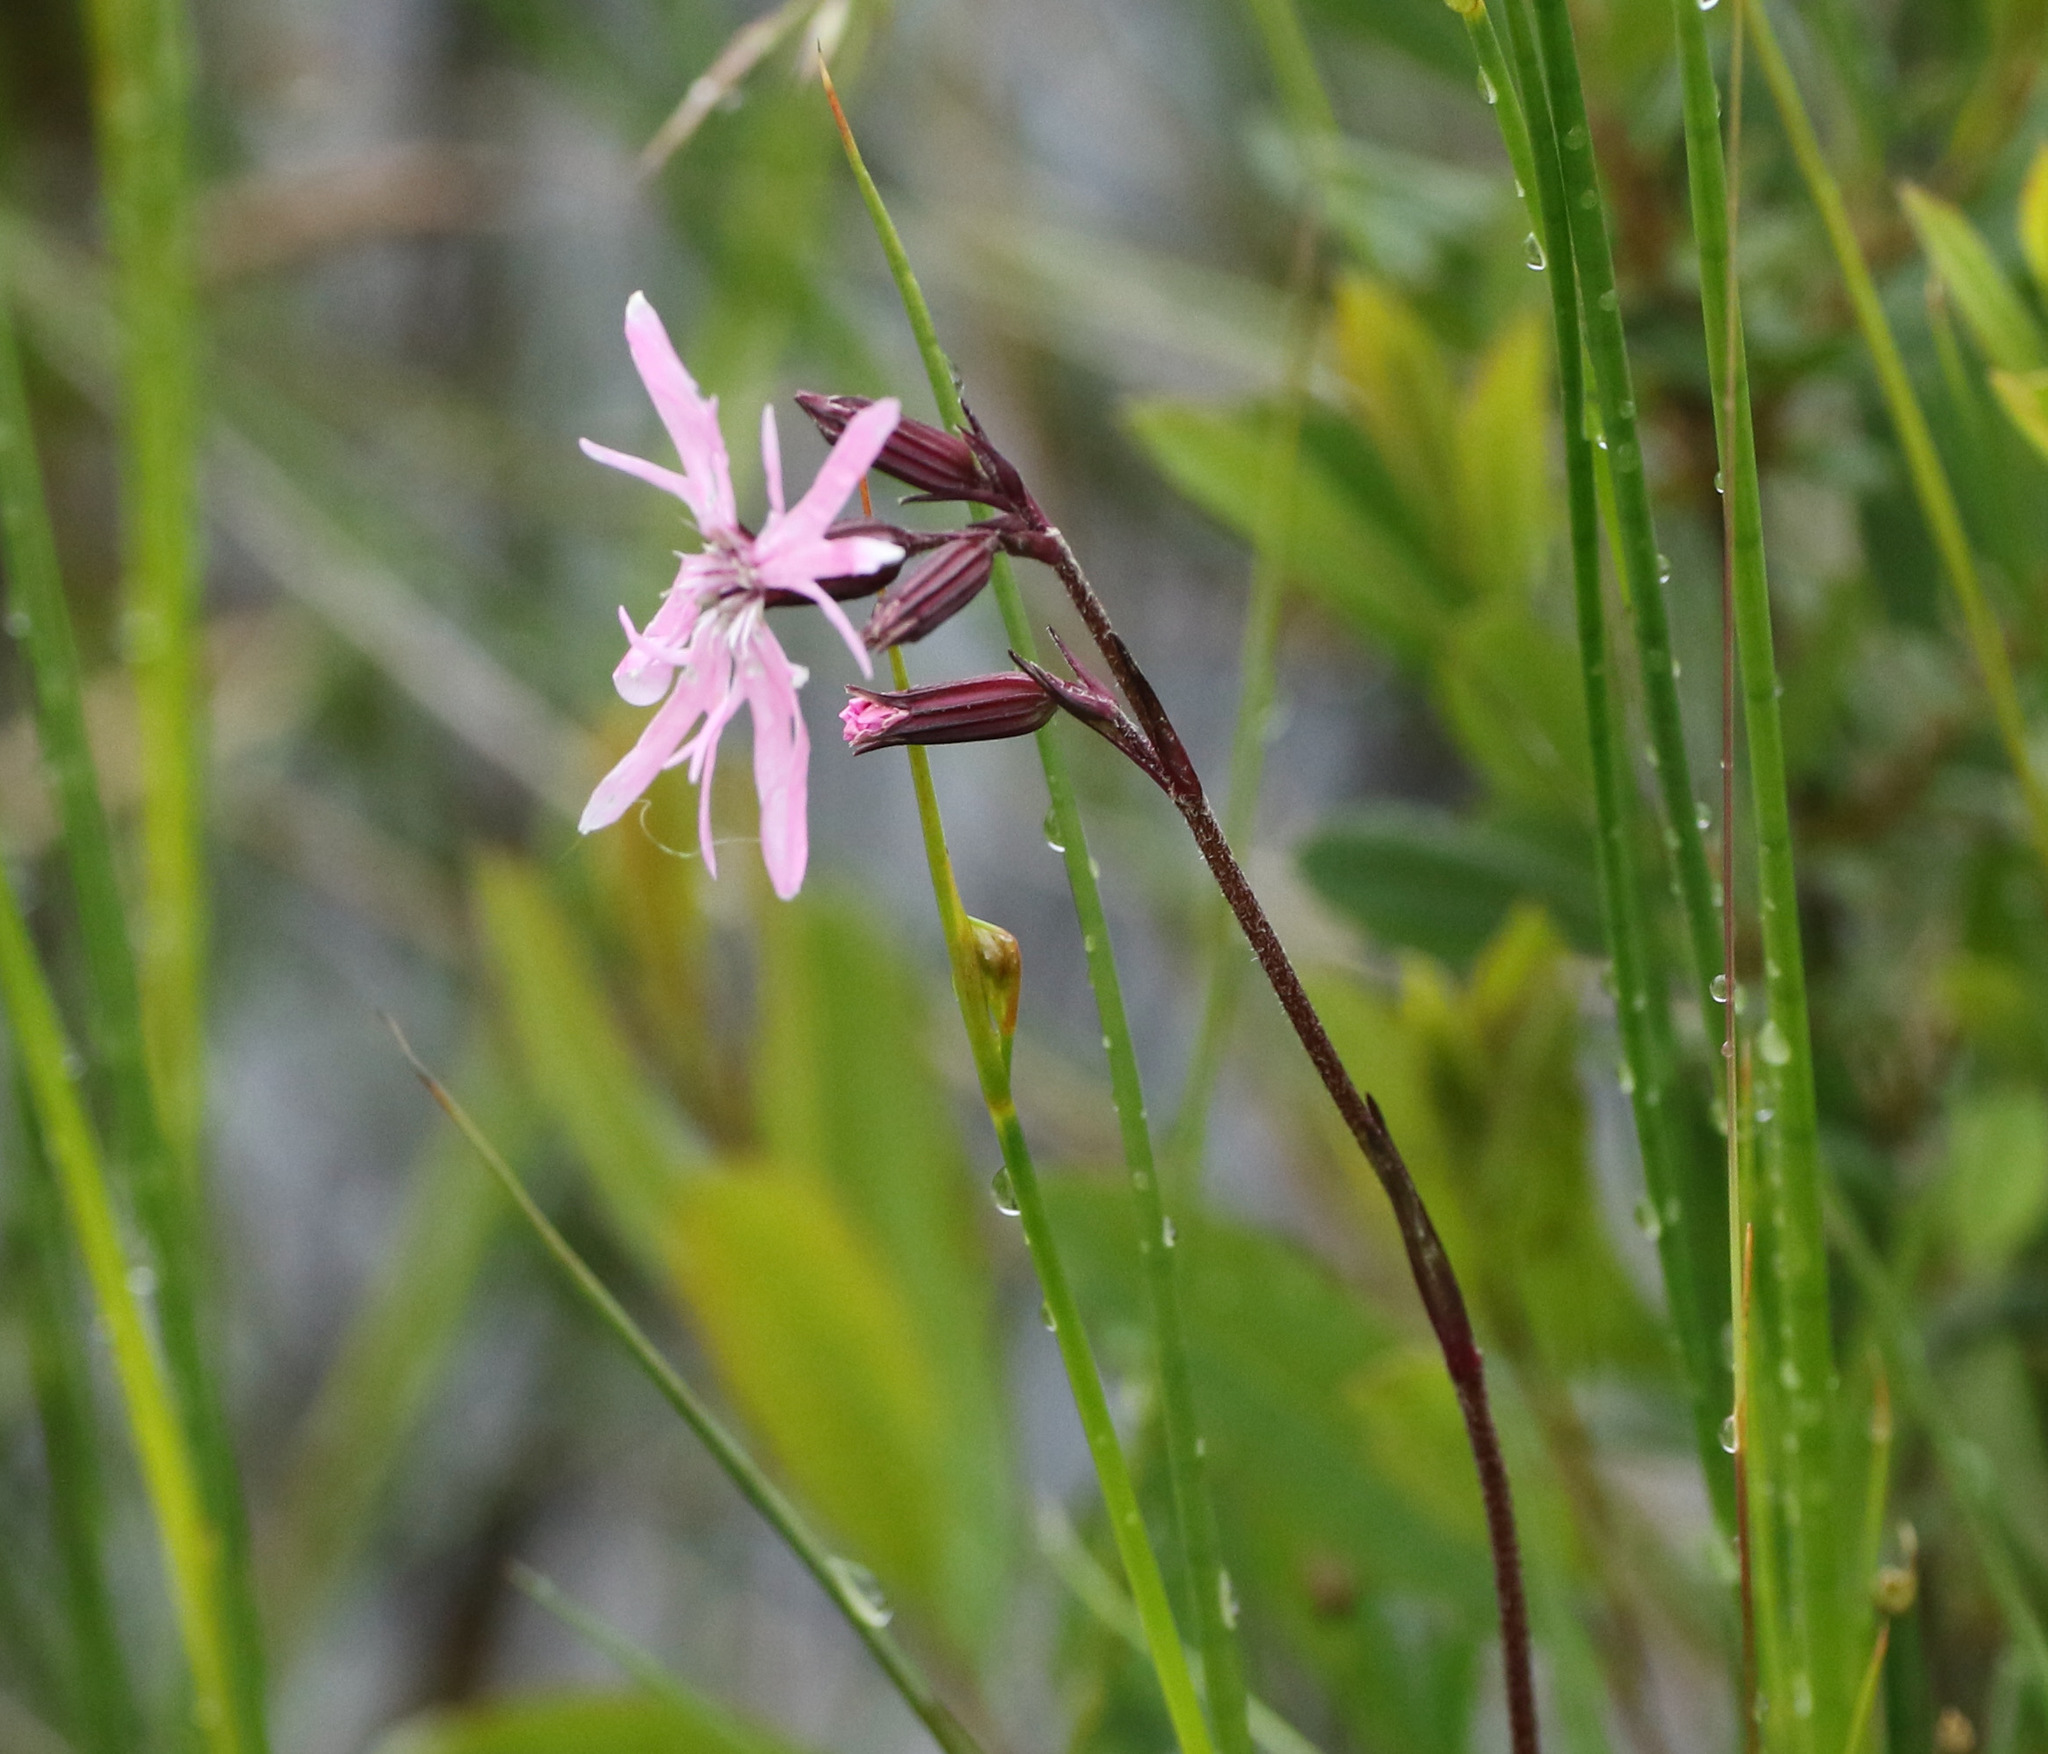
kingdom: Plantae
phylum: Tracheophyta
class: Magnoliopsida
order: Caryophyllales
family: Caryophyllaceae
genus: Silene
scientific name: Silene flos-cuculi
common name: Ragged-robin
